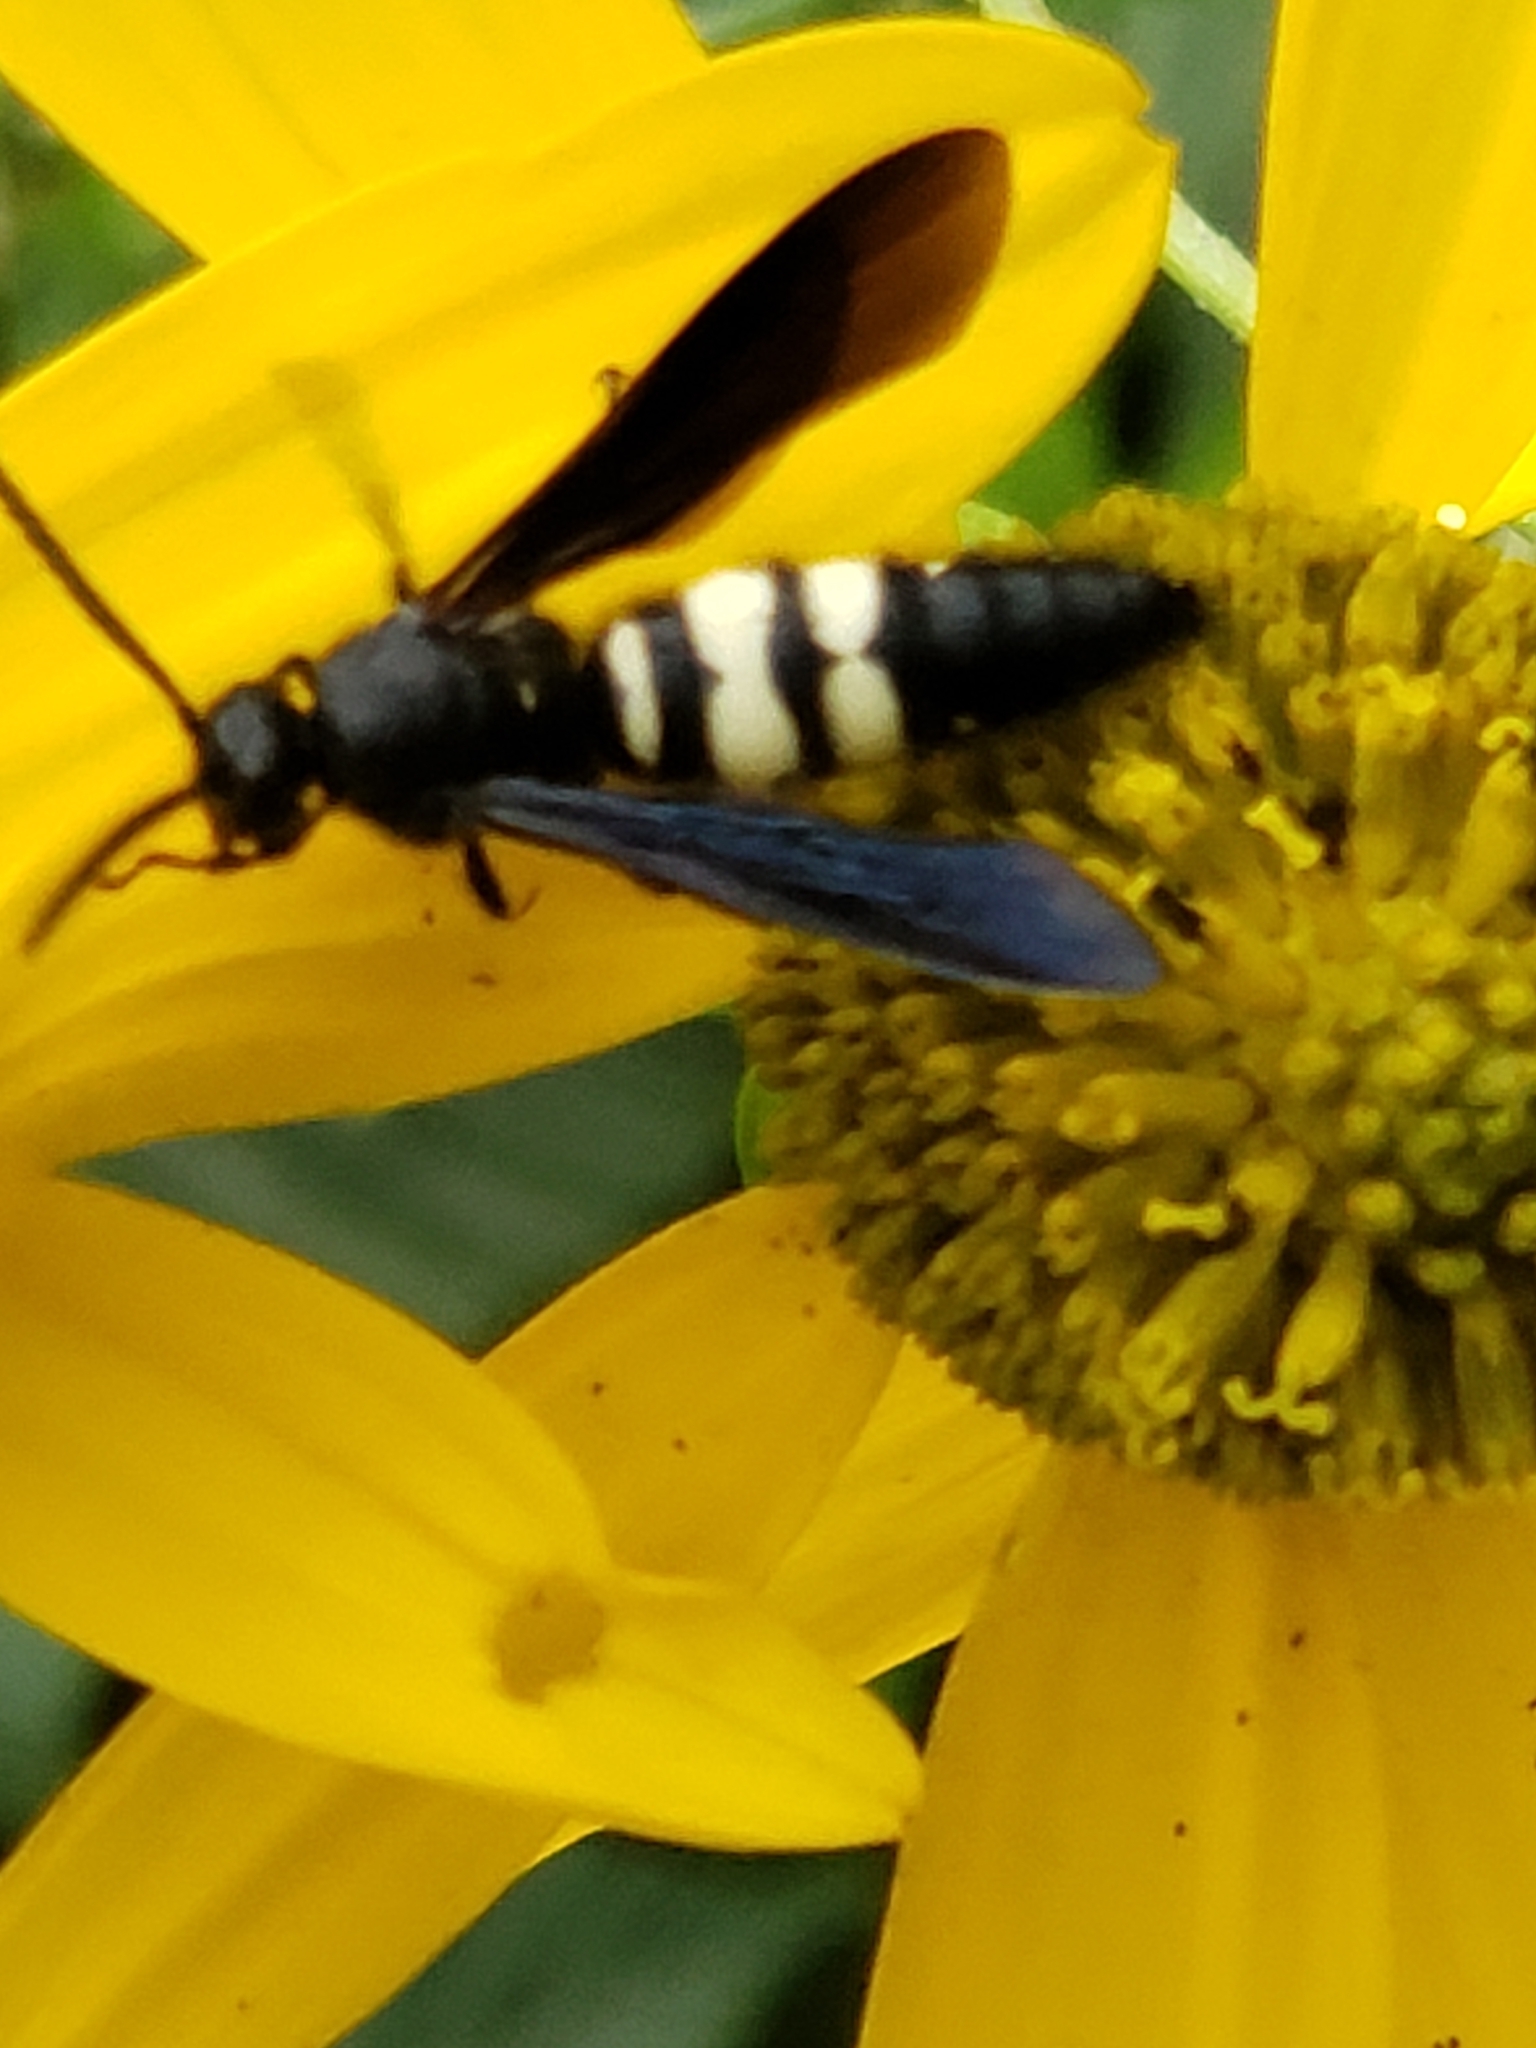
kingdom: Animalia
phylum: Arthropoda
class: Insecta
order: Hymenoptera
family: Scoliidae
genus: Scolia
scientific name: Scolia bicincta
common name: Double-banded scoliid wasp
